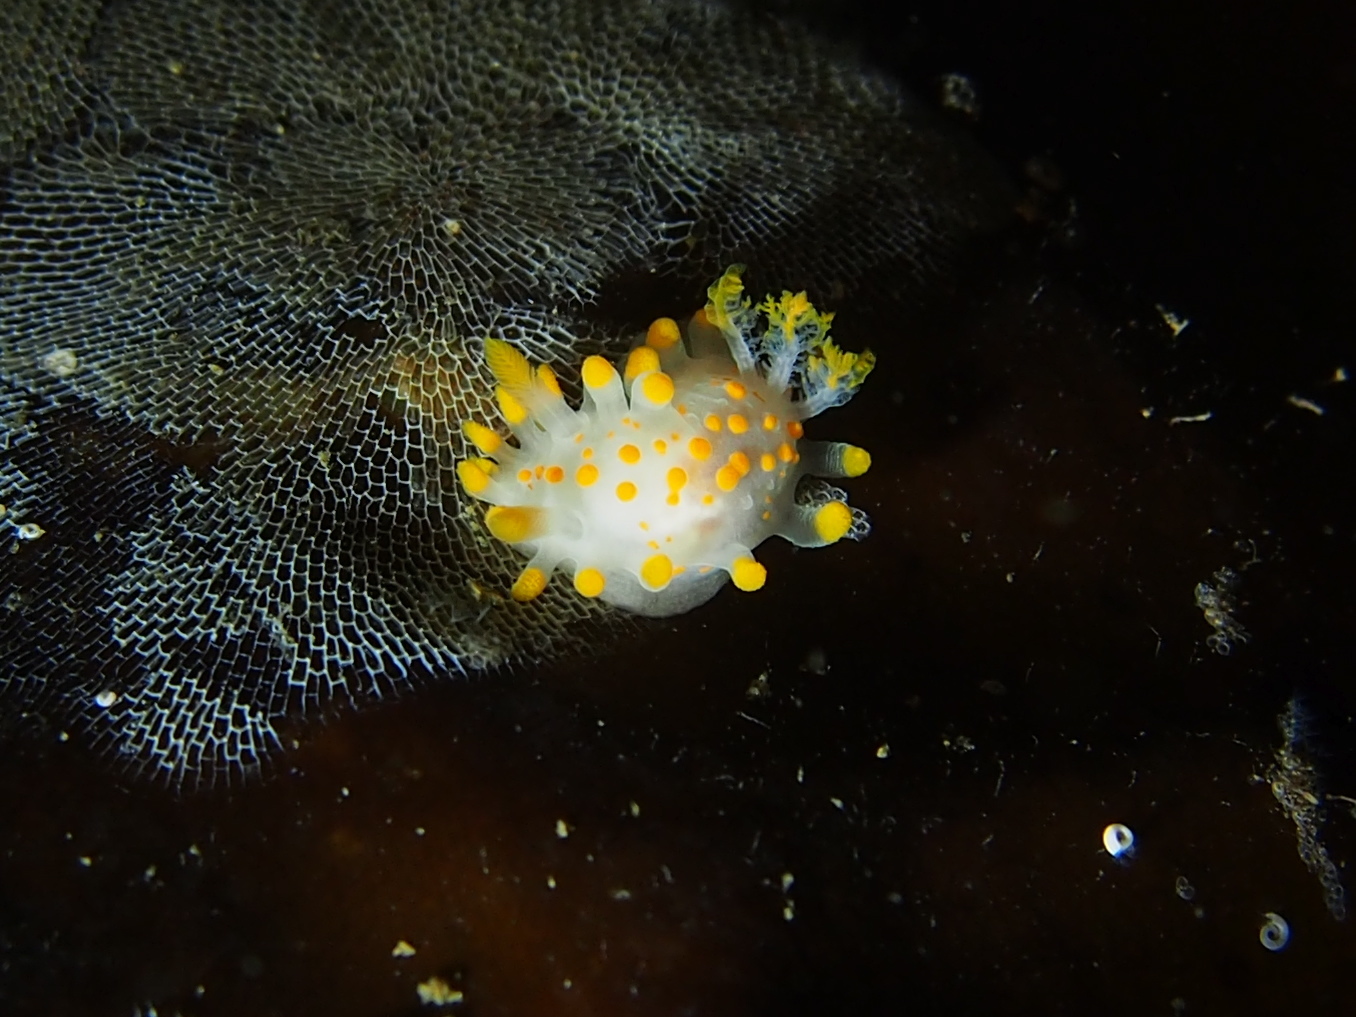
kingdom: Animalia
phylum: Mollusca
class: Gastropoda
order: Nudibranchia
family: Polyceridae
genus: Limacia
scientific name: Limacia clavigera
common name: Orange-clubbed sea slug
